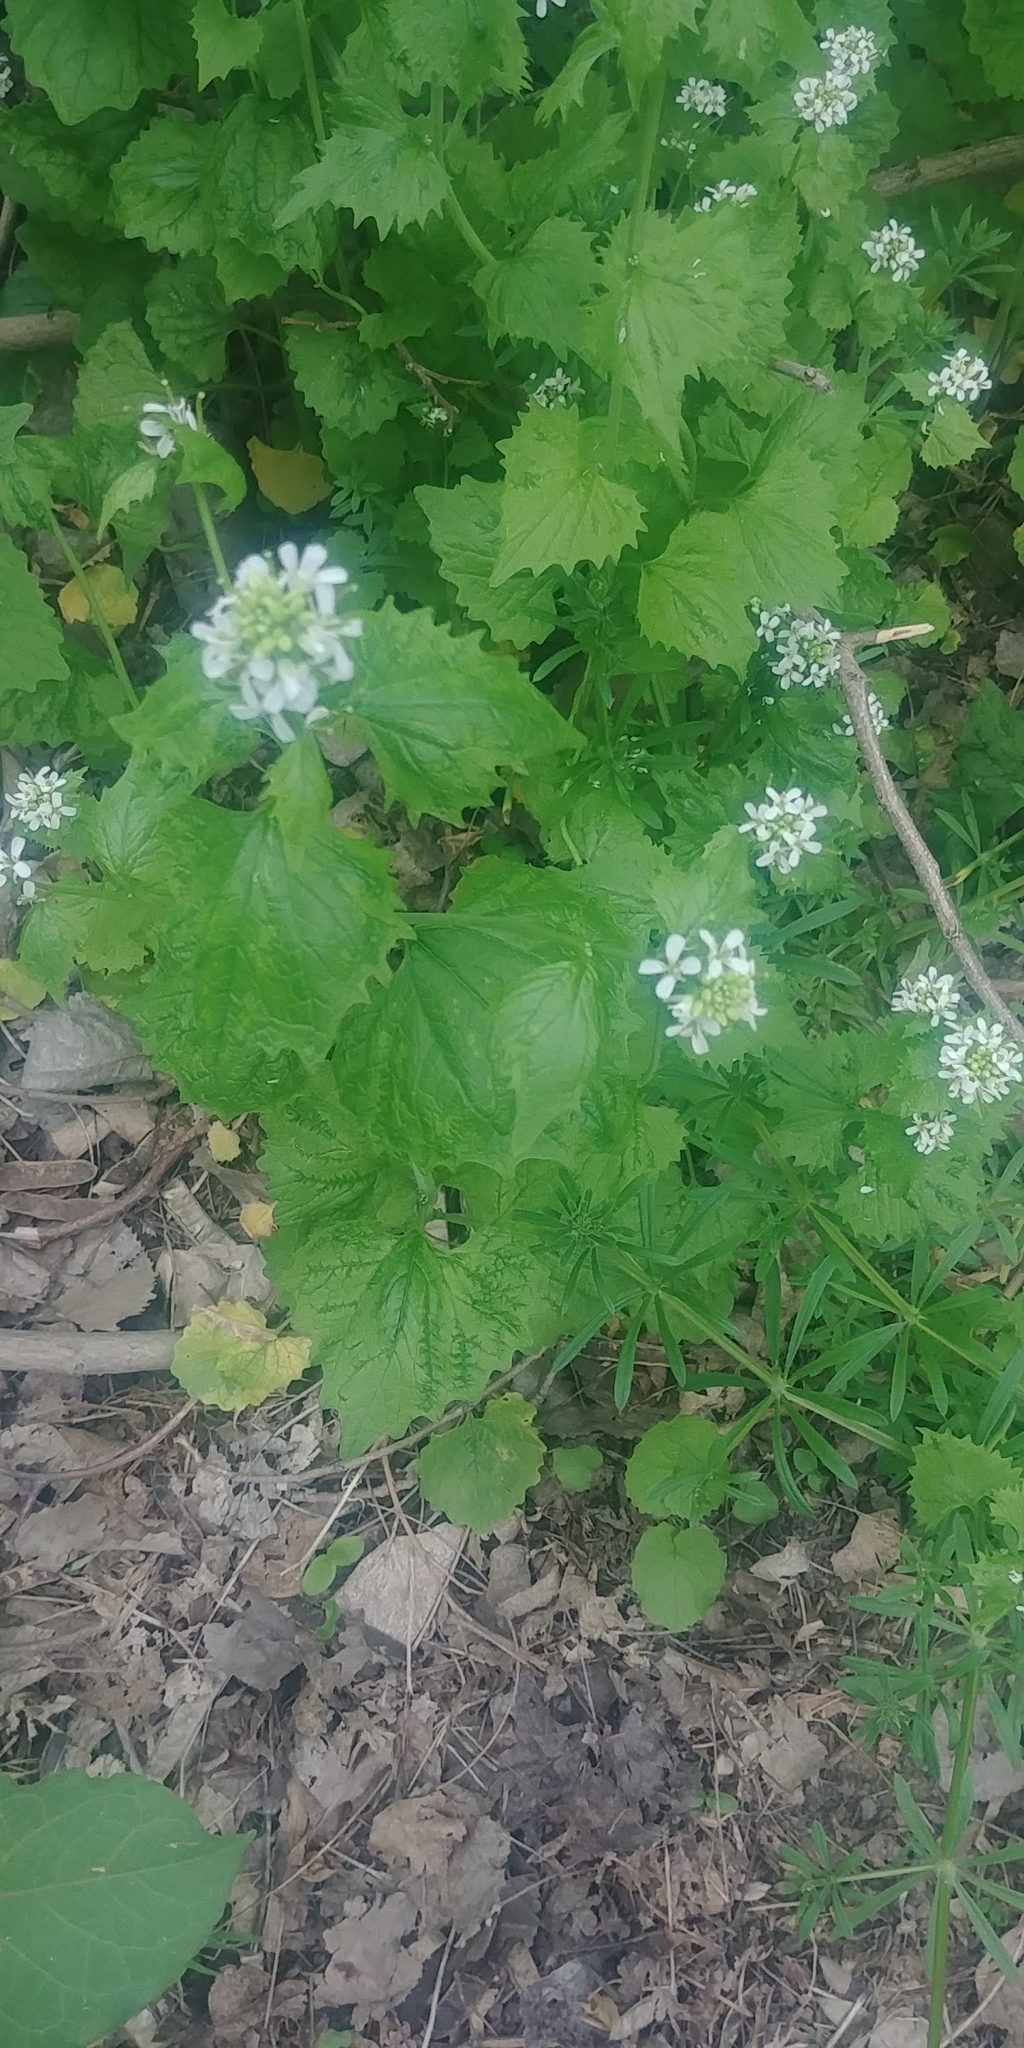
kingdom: Plantae
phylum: Tracheophyta
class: Magnoliopsida
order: Brassicales
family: Brassicaceae
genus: Alliaria
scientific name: Alliaria petiolata
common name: Garlic mustard
